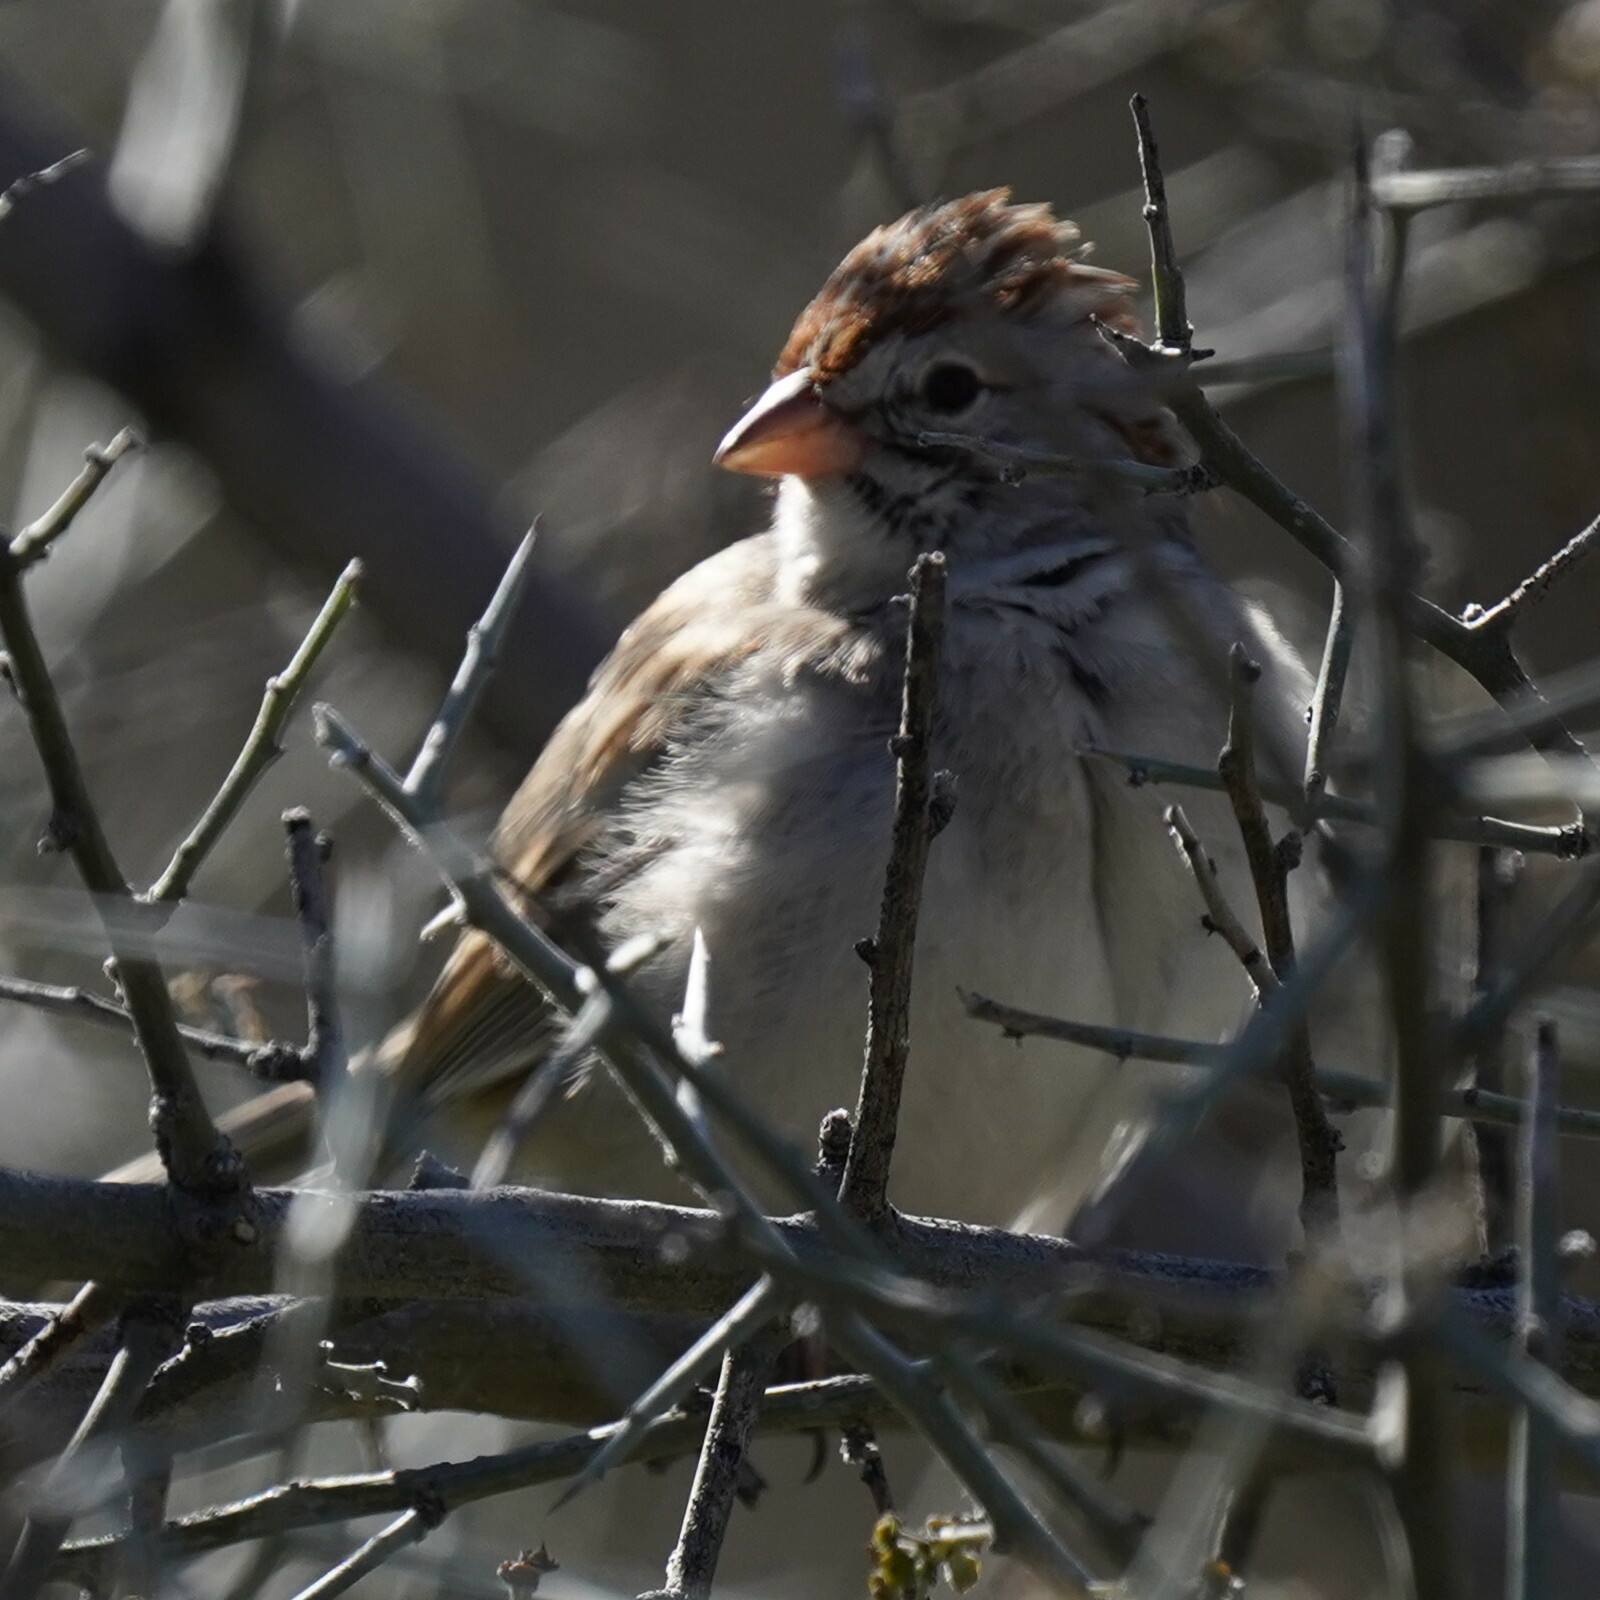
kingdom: Animalia
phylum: Chordata
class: Aves
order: Passeriformes
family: Passerellidae
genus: Peucaea
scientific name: Peucaea carpalis
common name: Rufous-winged sparrow
